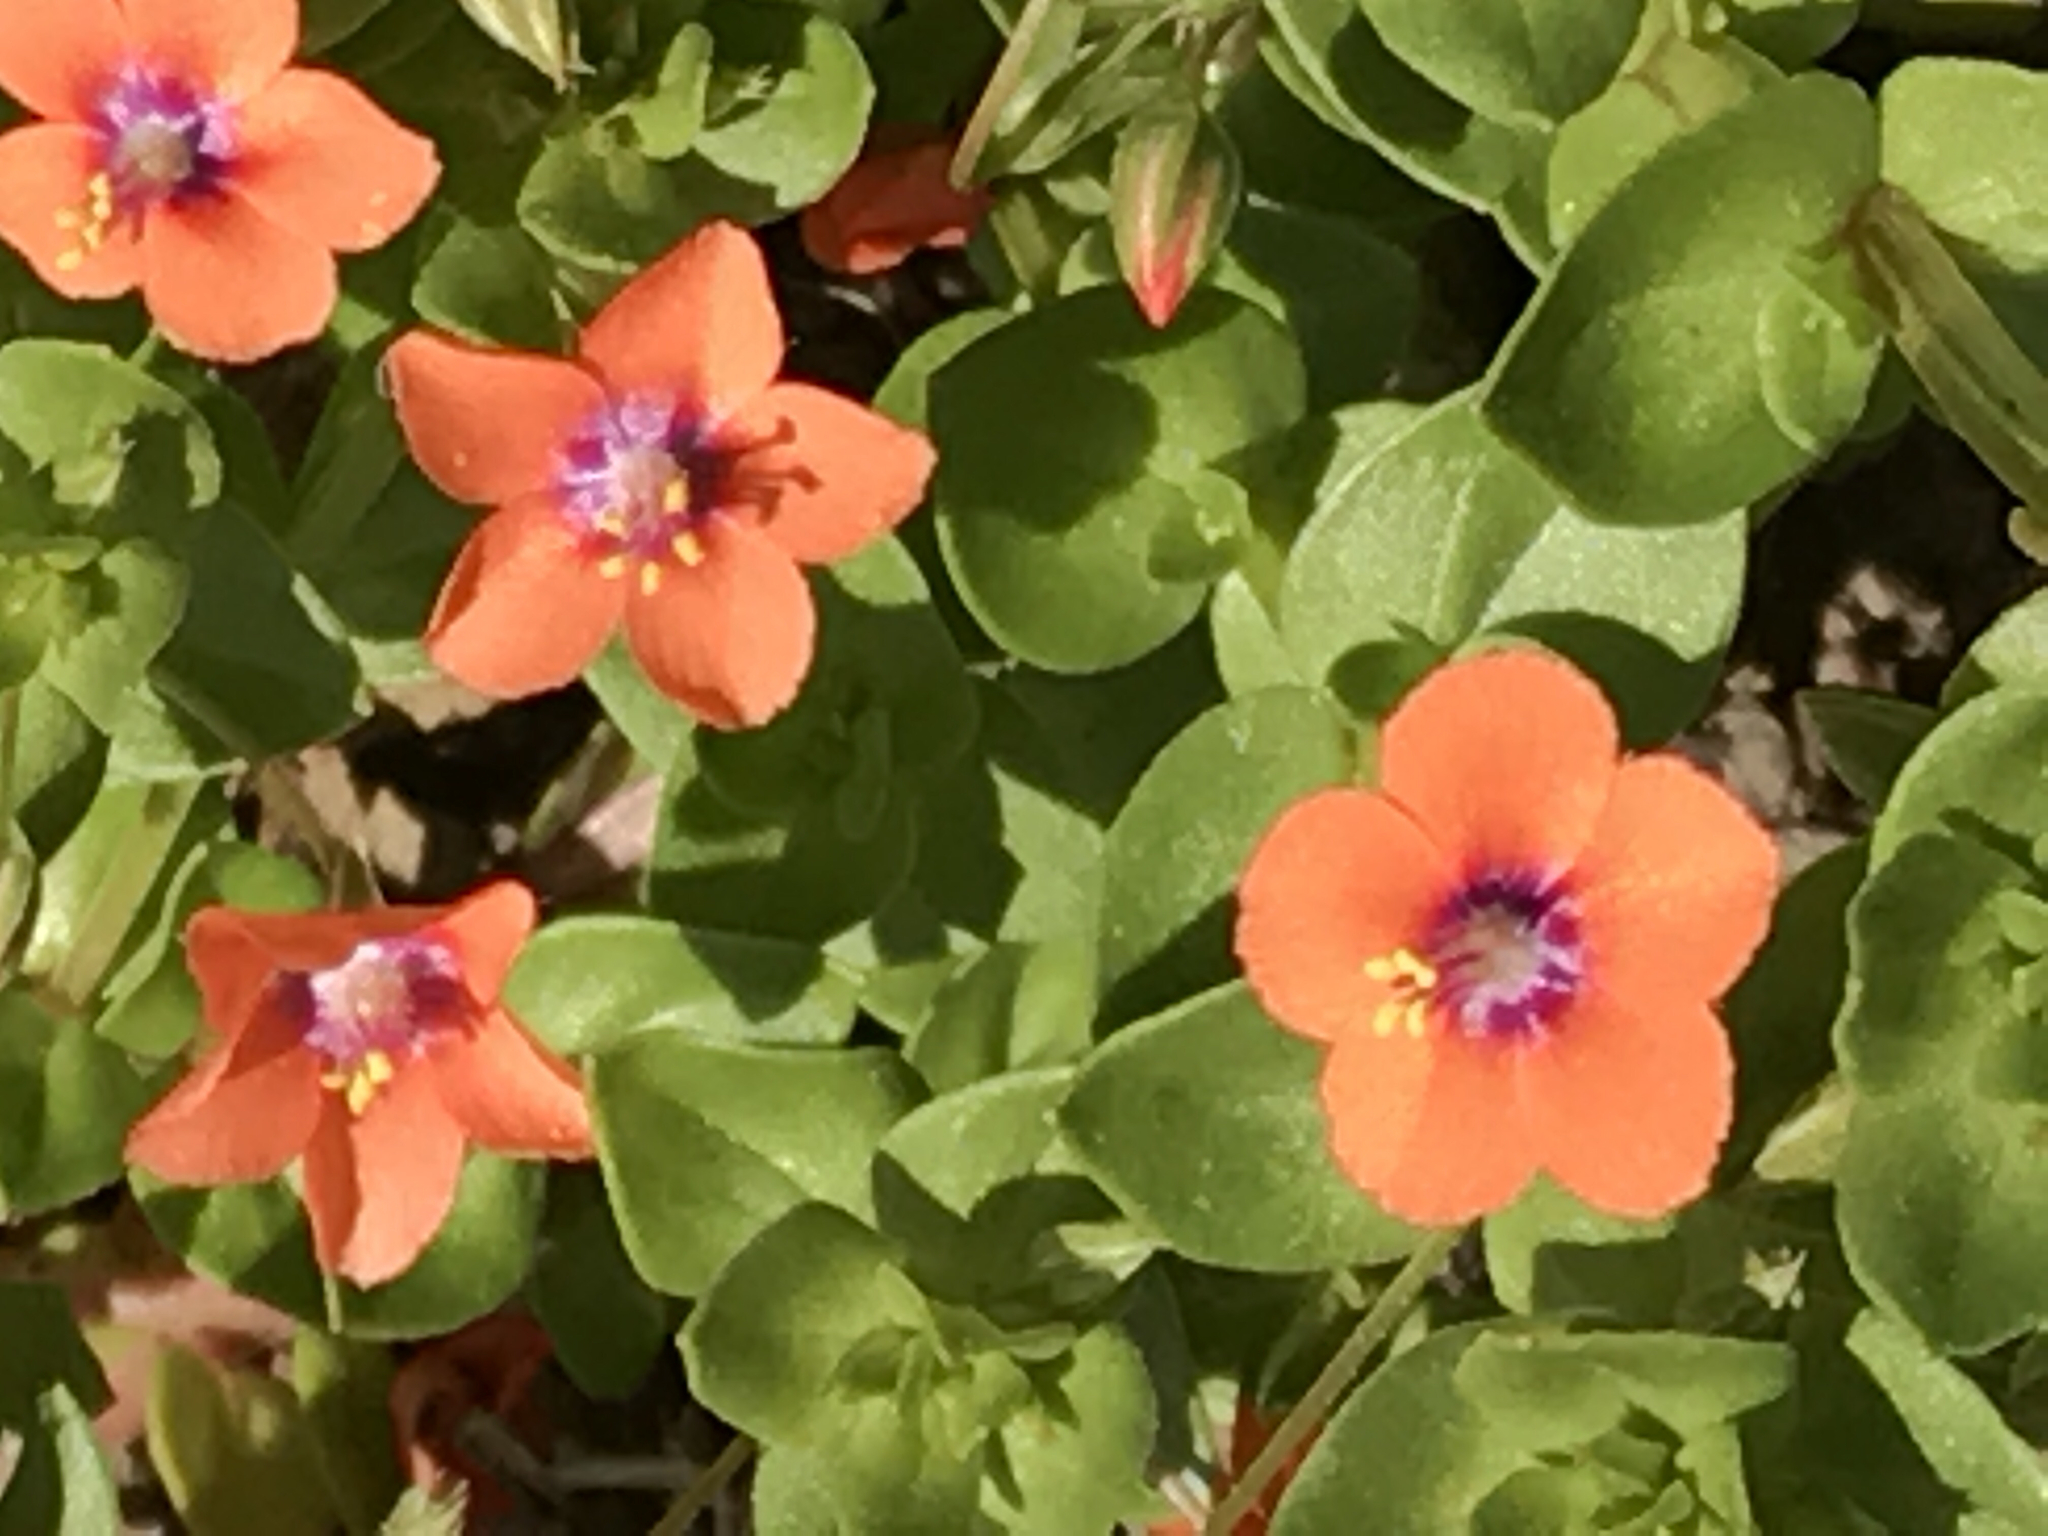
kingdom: Plantae
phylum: Tracheophyta
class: Magnoliopsida
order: Ericales
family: Primulaceae
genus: Lysimachia
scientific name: Lysimachia arvensis
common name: Scarlet pimpernel
